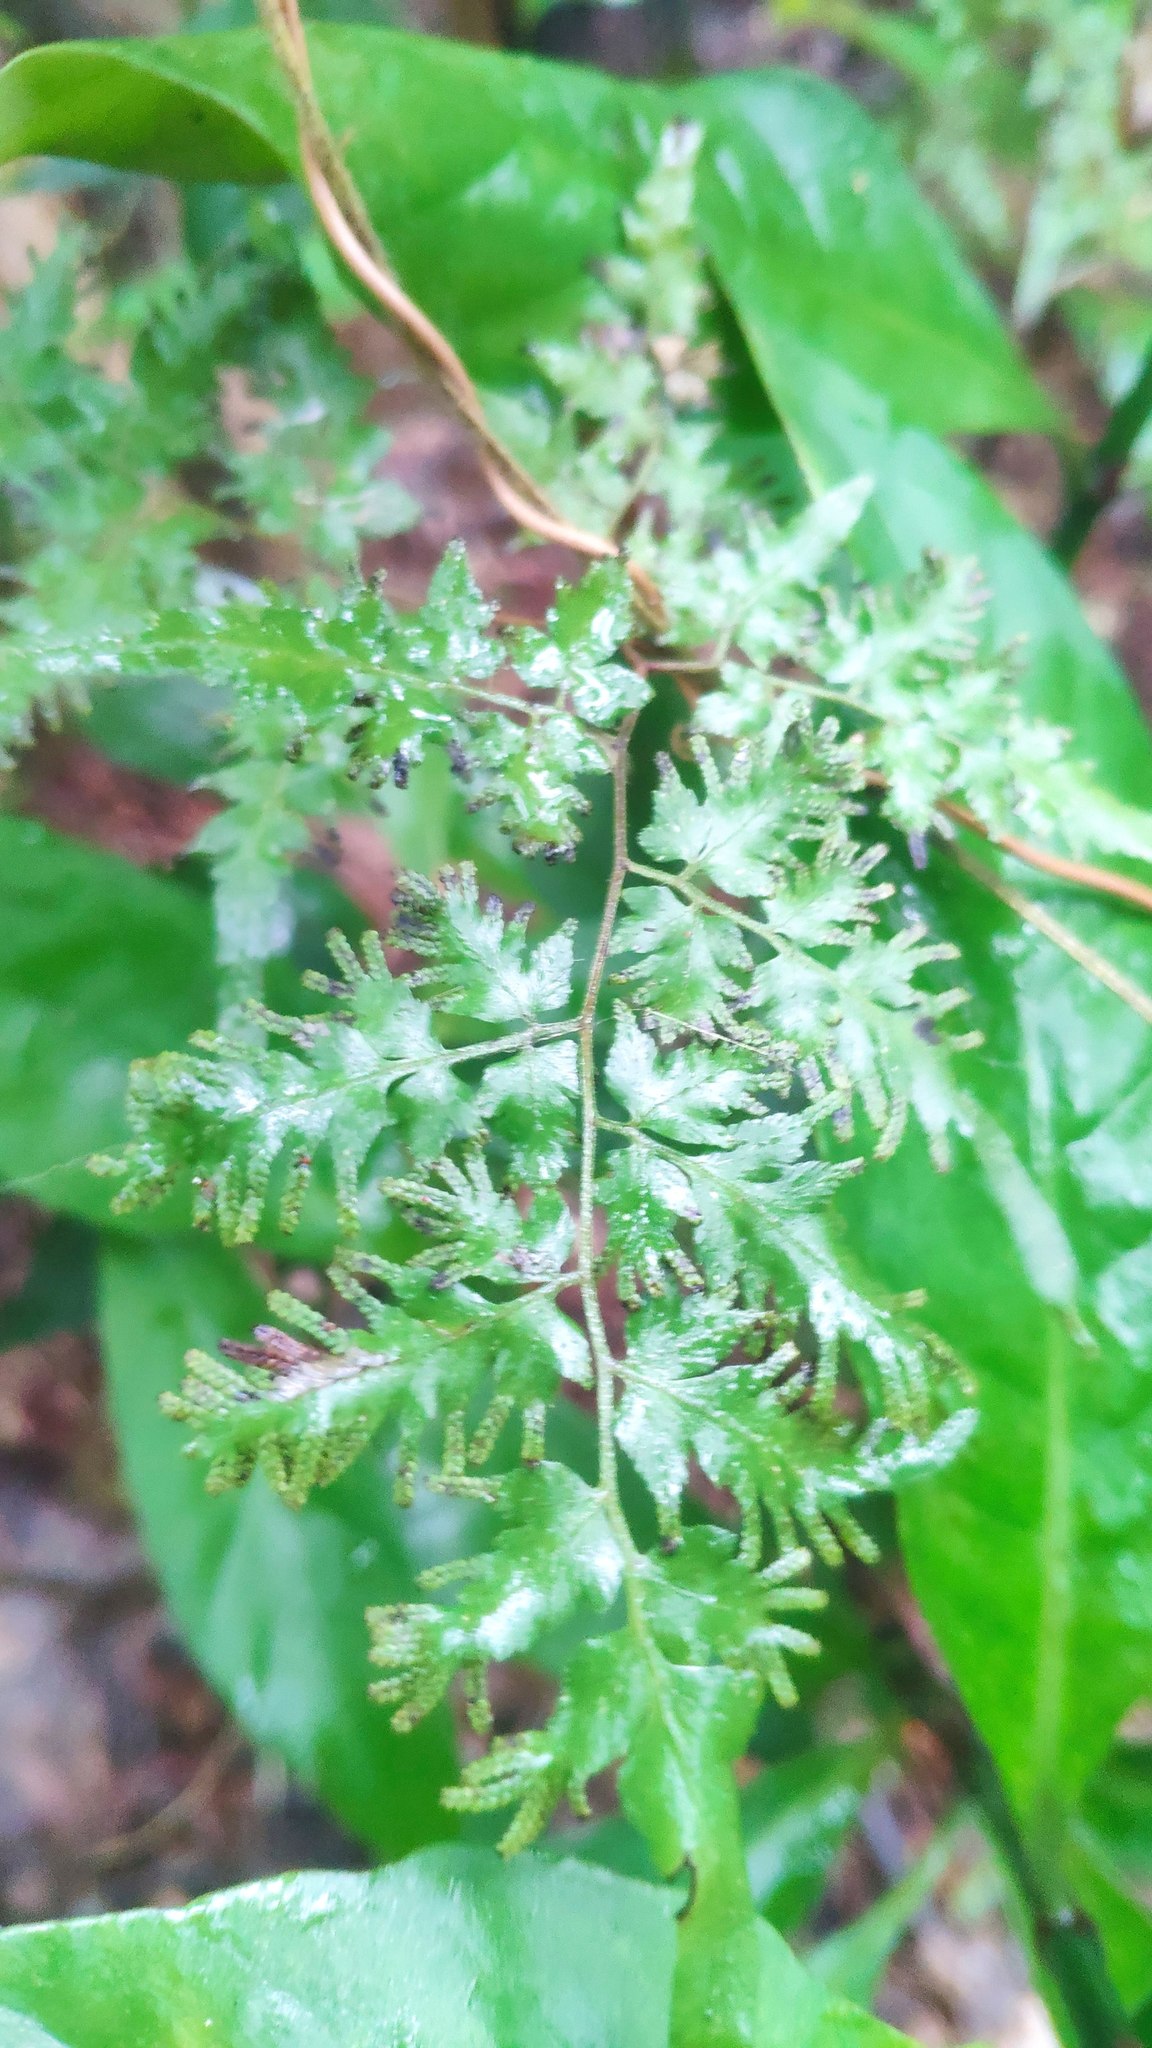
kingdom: Plantae
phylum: Tracheophyta
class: Polypodiopsida
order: Schizaeales
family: Lygodiaceae
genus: Lygodium
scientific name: Lygodium japonicum
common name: Japanese climbing fern
